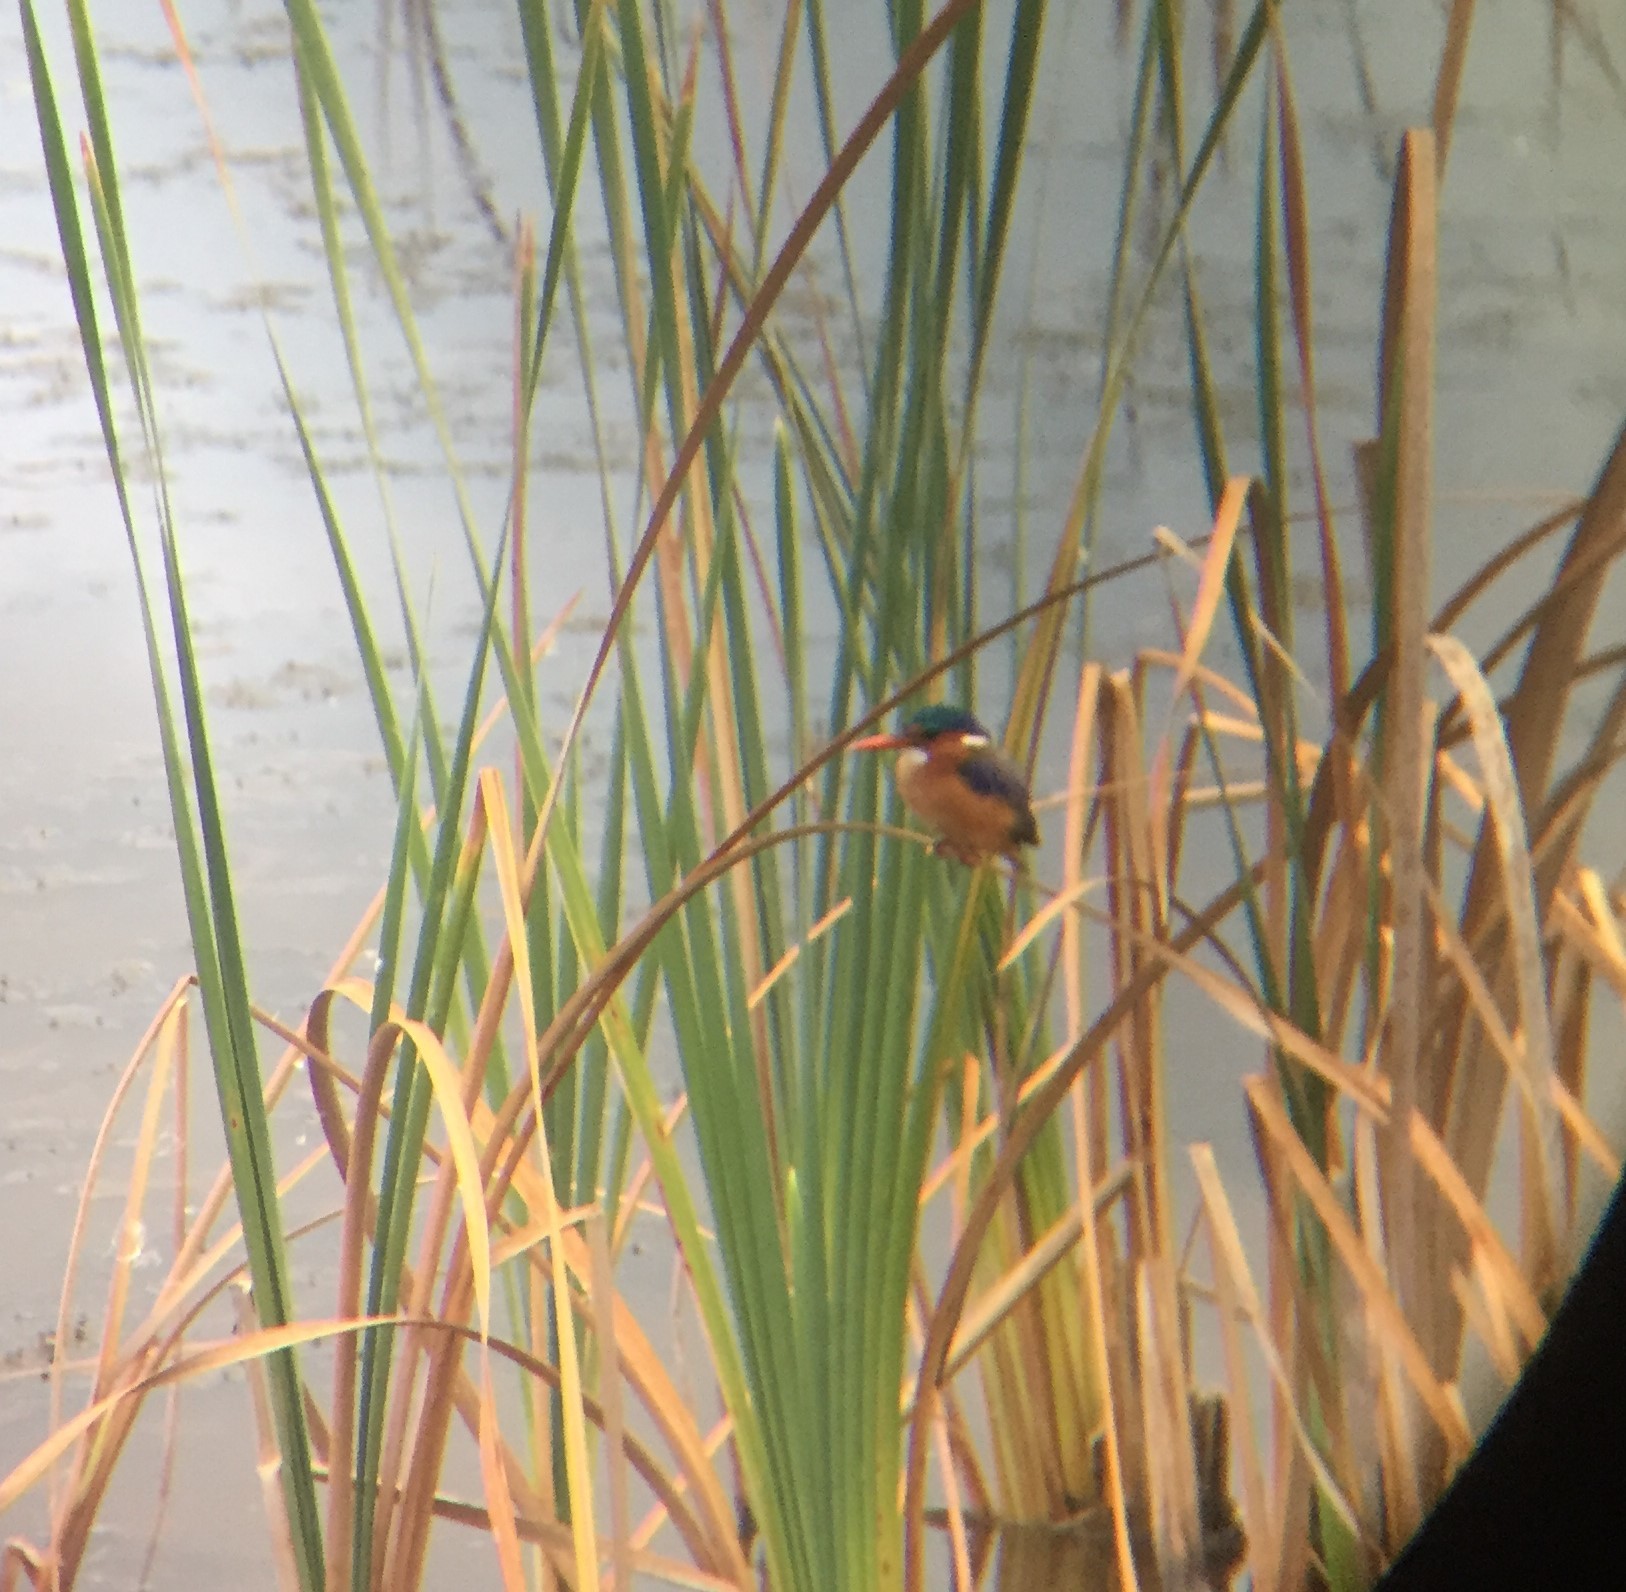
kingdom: Animalia
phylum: Chordata
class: Aves
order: Coraciiformes
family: Alcedinidae
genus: Corythornis
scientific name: Corythornis cristatus
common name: Malachite kingfisher
